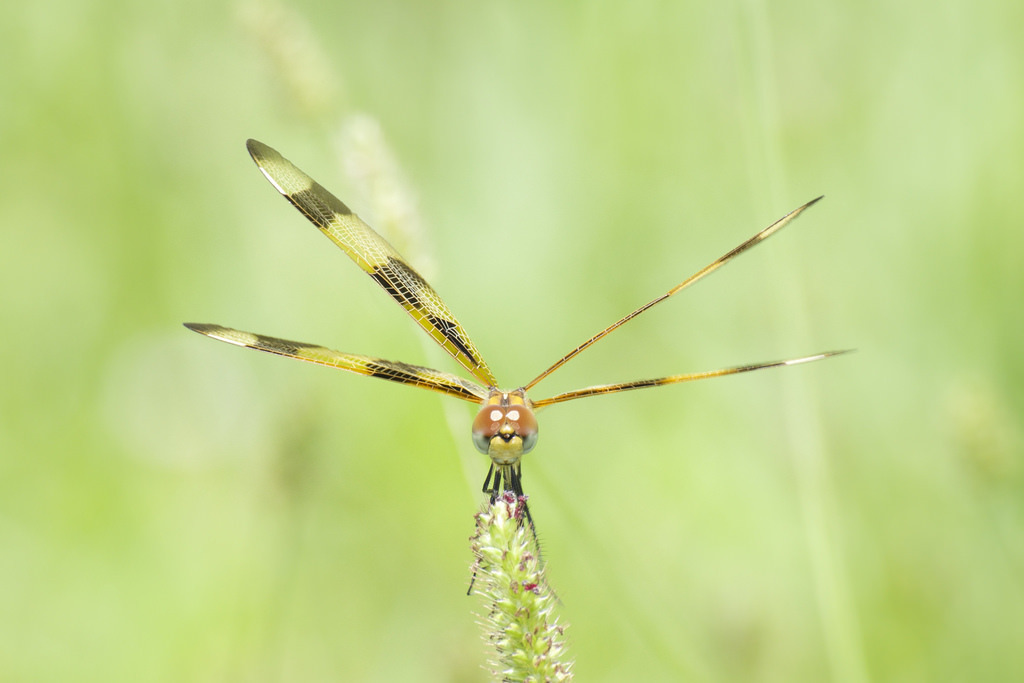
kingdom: Animalia
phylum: Arthropoda
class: Insecta
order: Odonata
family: Libellulidae
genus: Celithemis
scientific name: Celithemis eponina
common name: Halloween pennant
